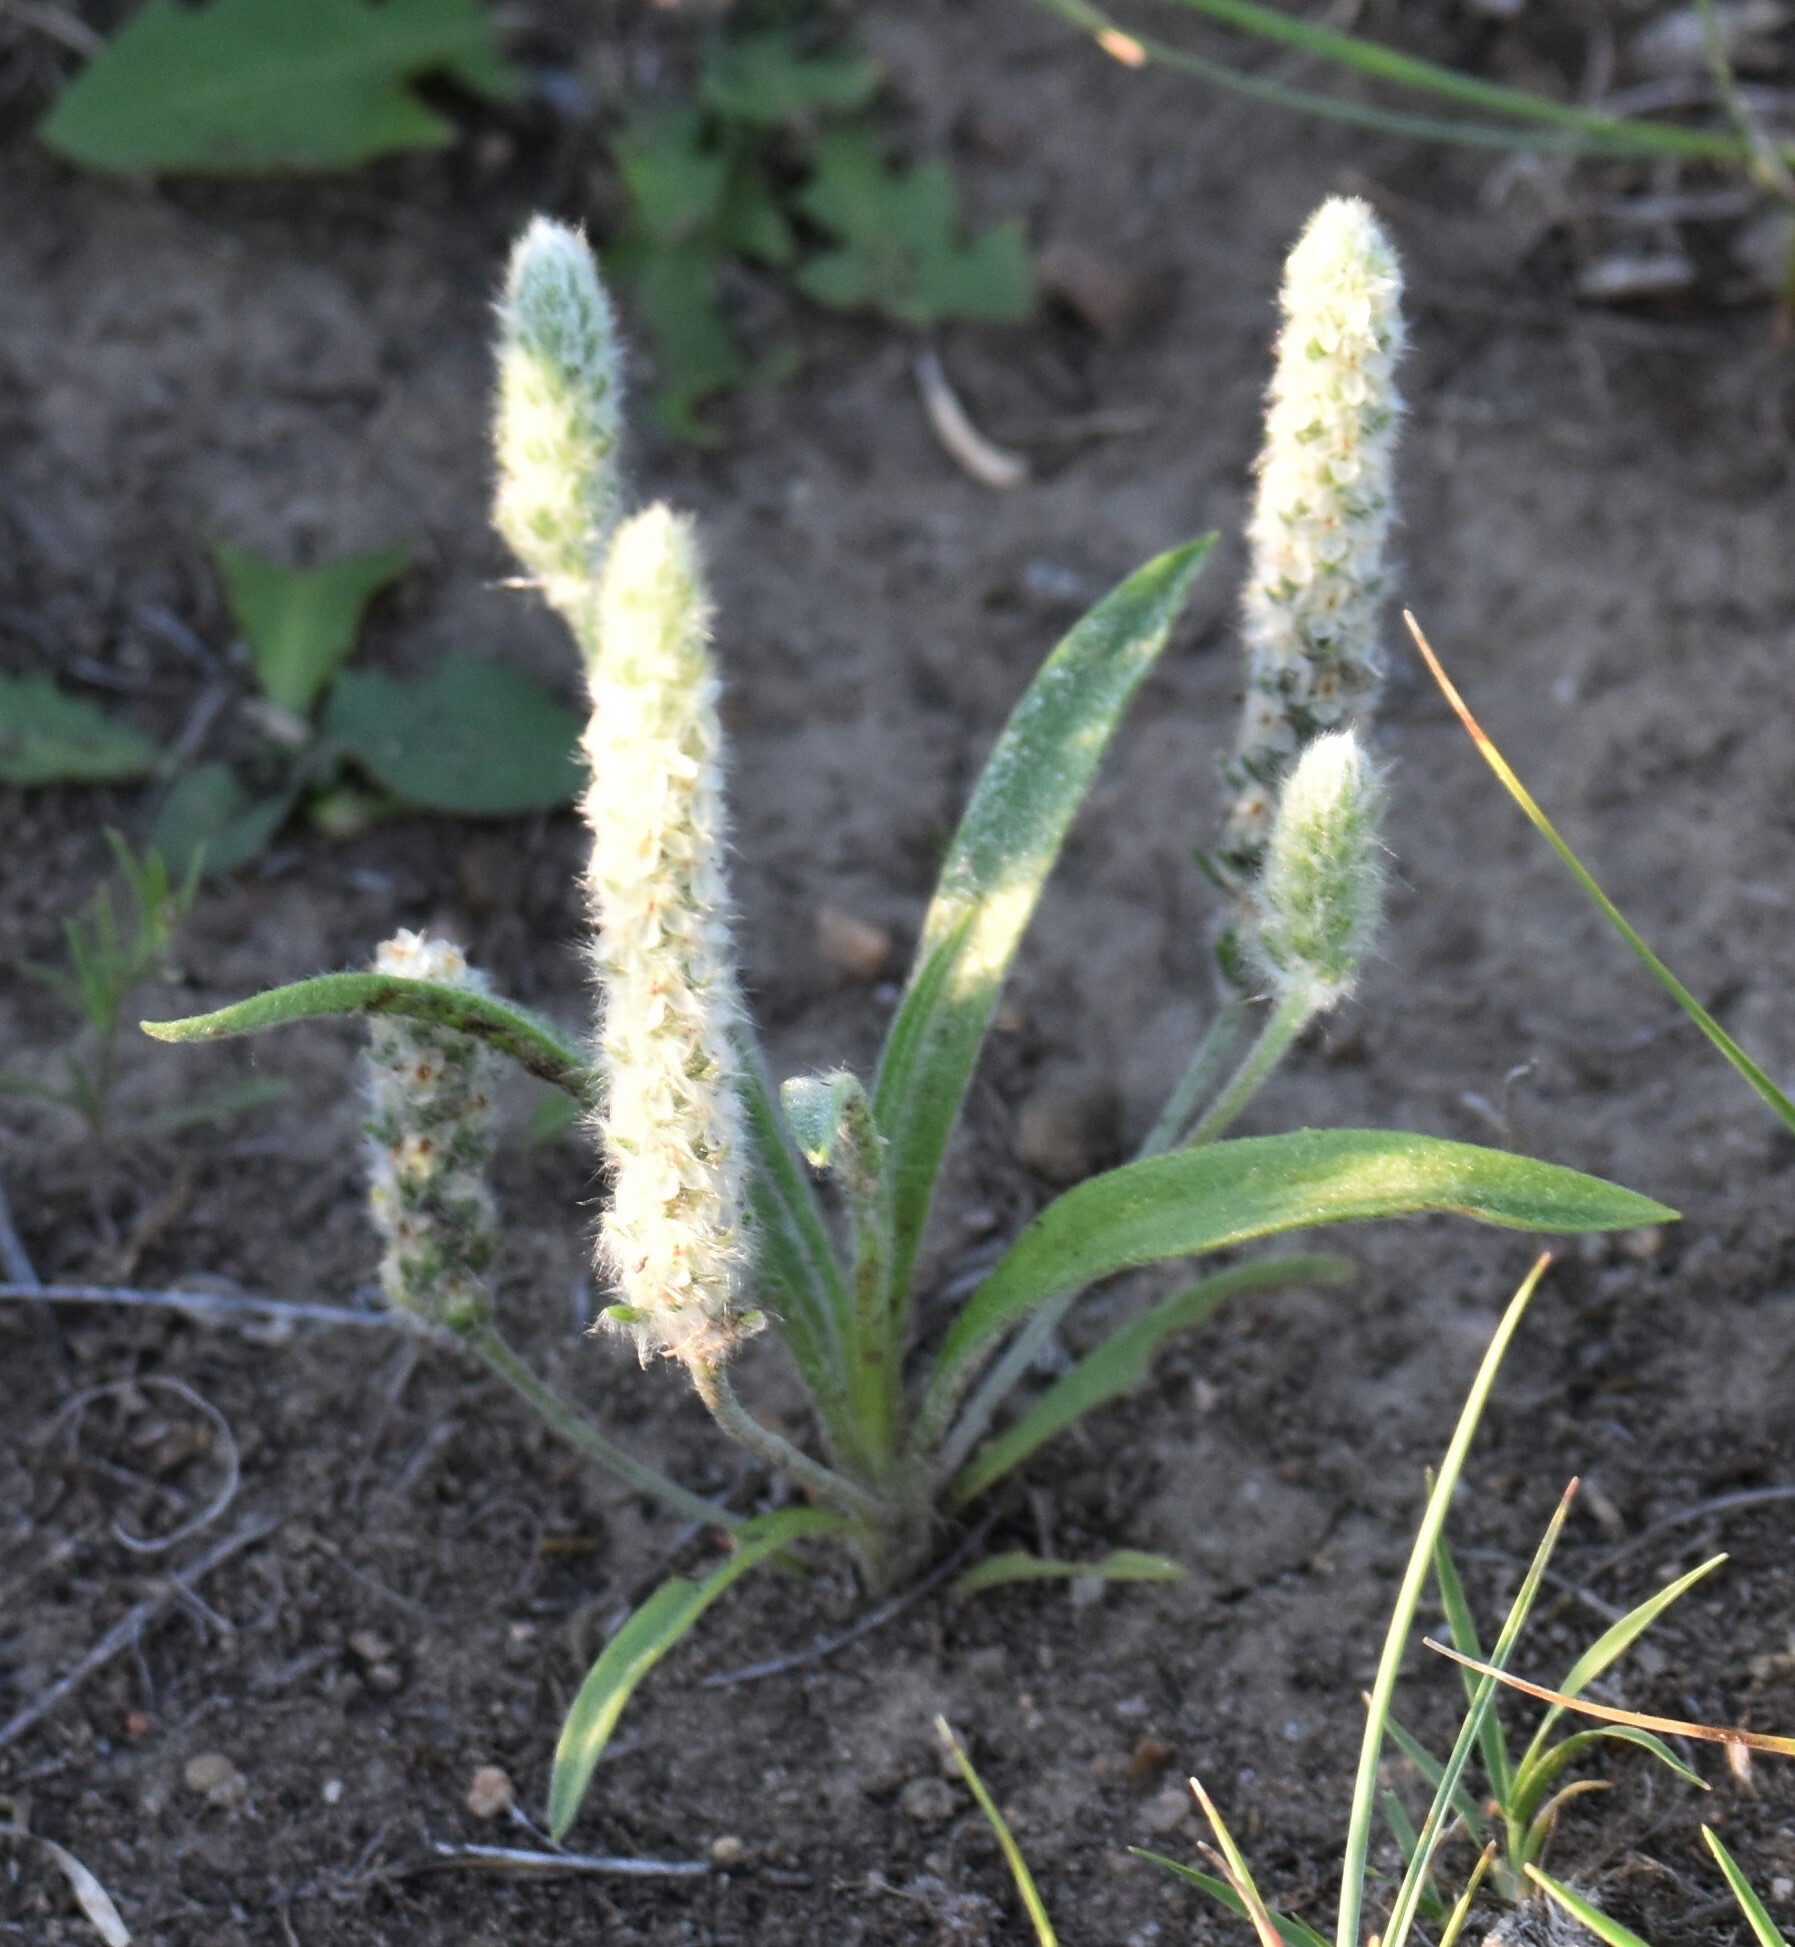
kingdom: Plantae
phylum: Tracheophyta
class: Magnoliopsida
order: Lamiales
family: Plantaginaceae
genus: Plantago
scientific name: Plantago patagonica
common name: Patagonia indian-wheat
